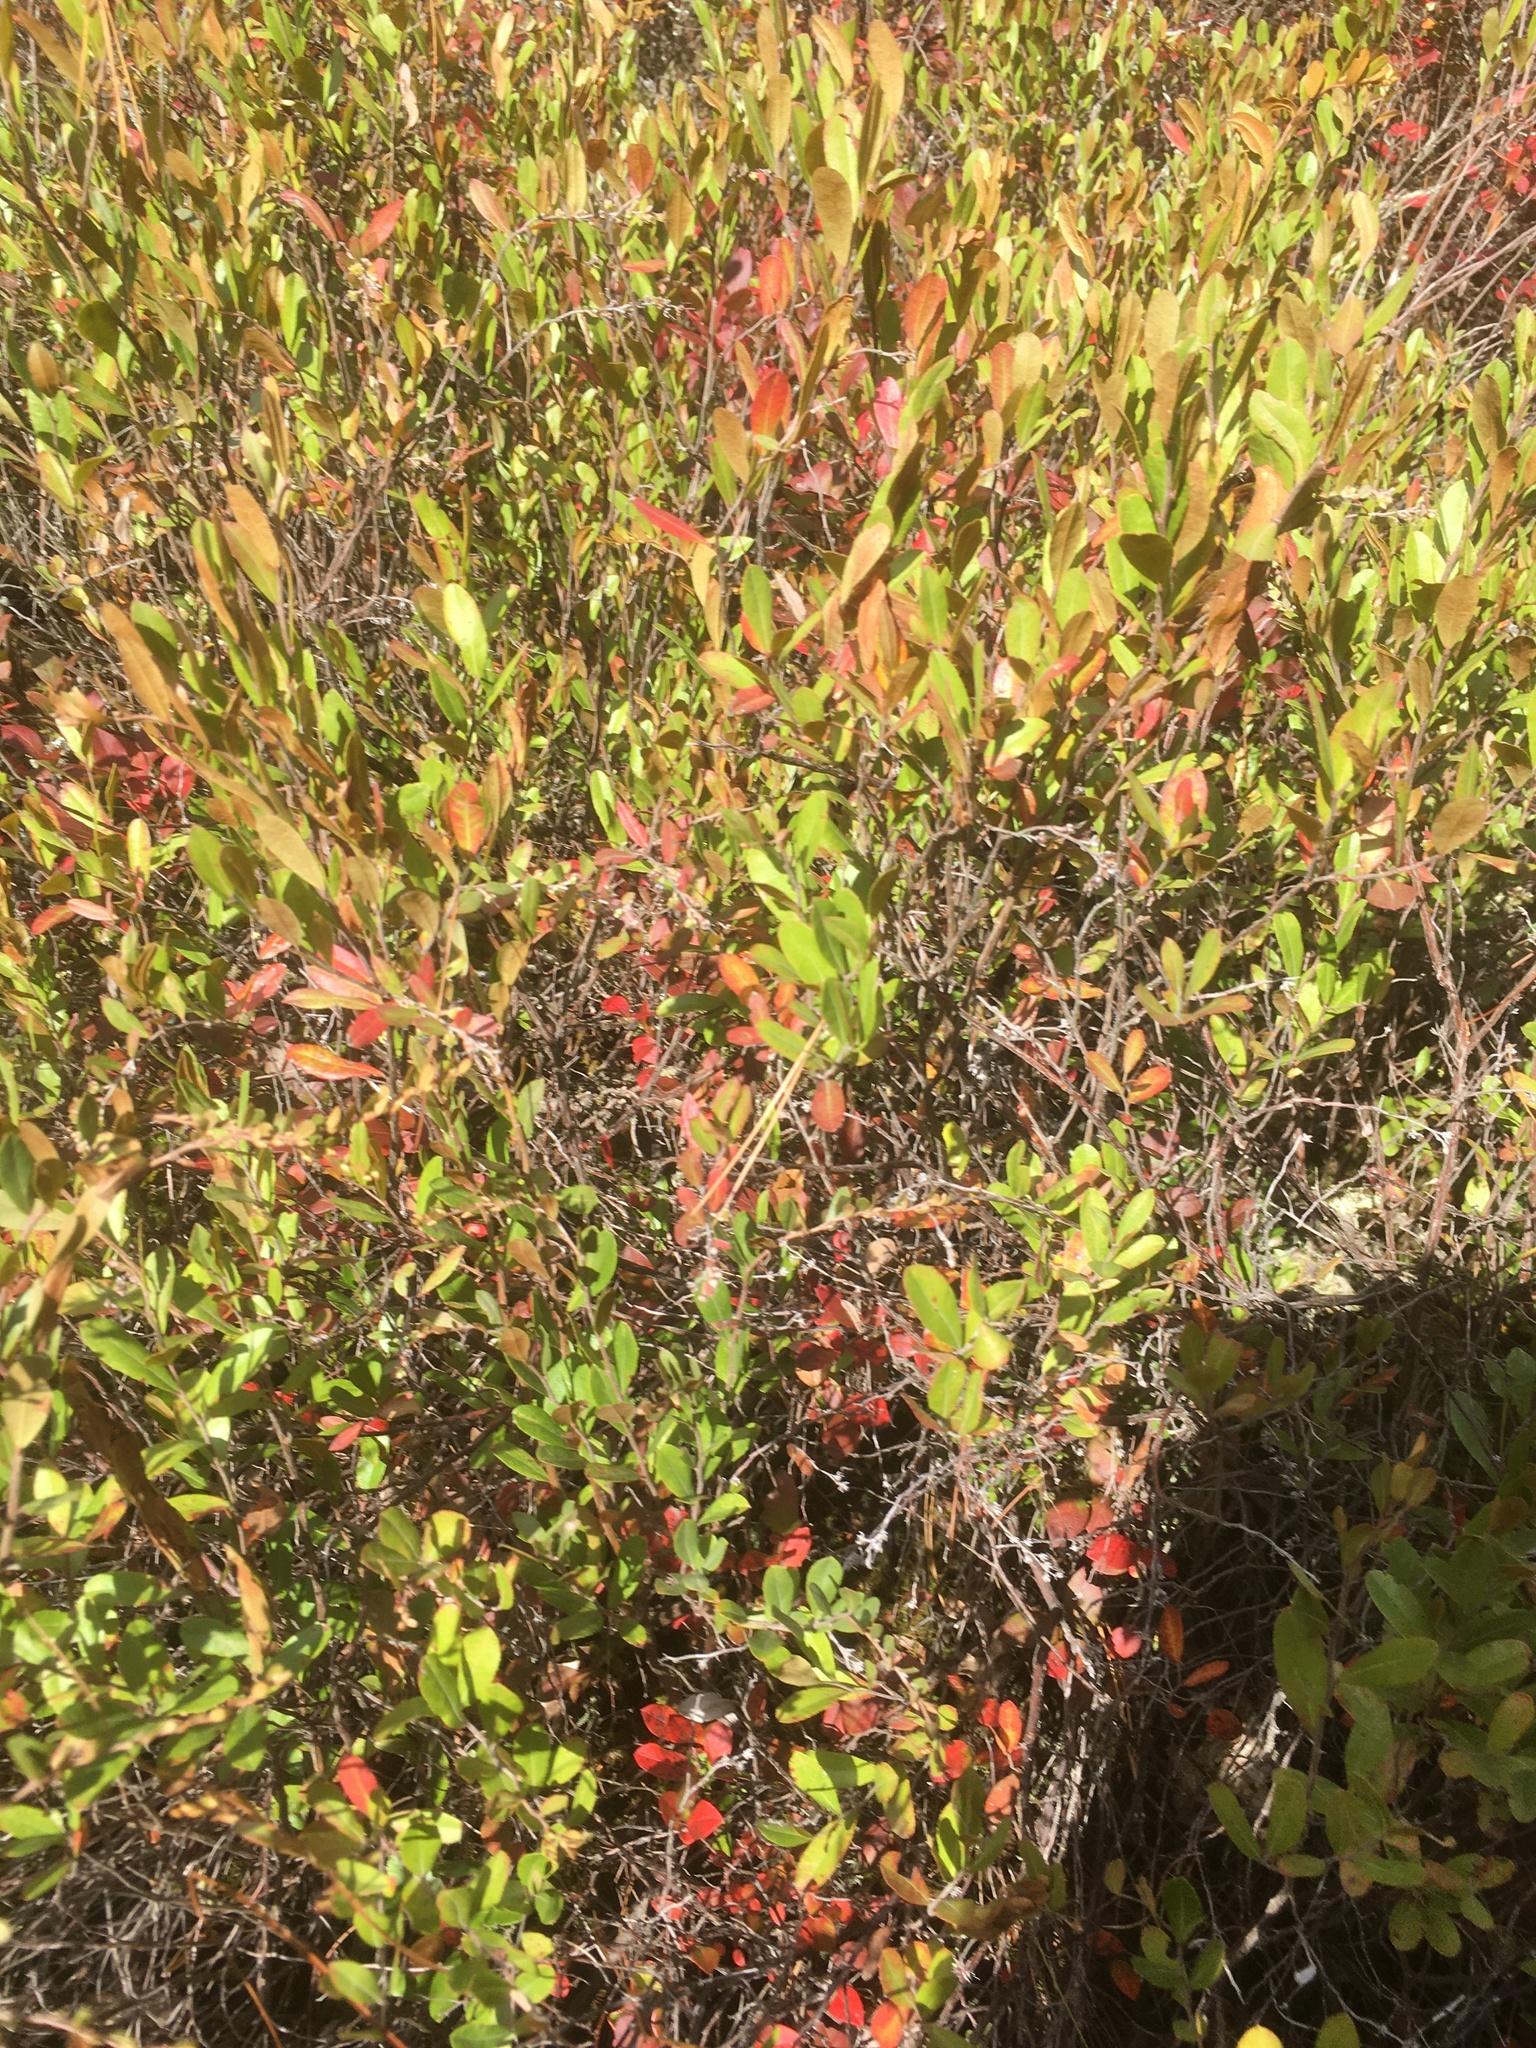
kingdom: Plantae
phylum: Tracheophyta
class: Magnoliopsida
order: Ericales
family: Ericaceae
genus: Chamaedaphne
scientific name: Chamaedaphne calyculata
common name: Leatherleaf
